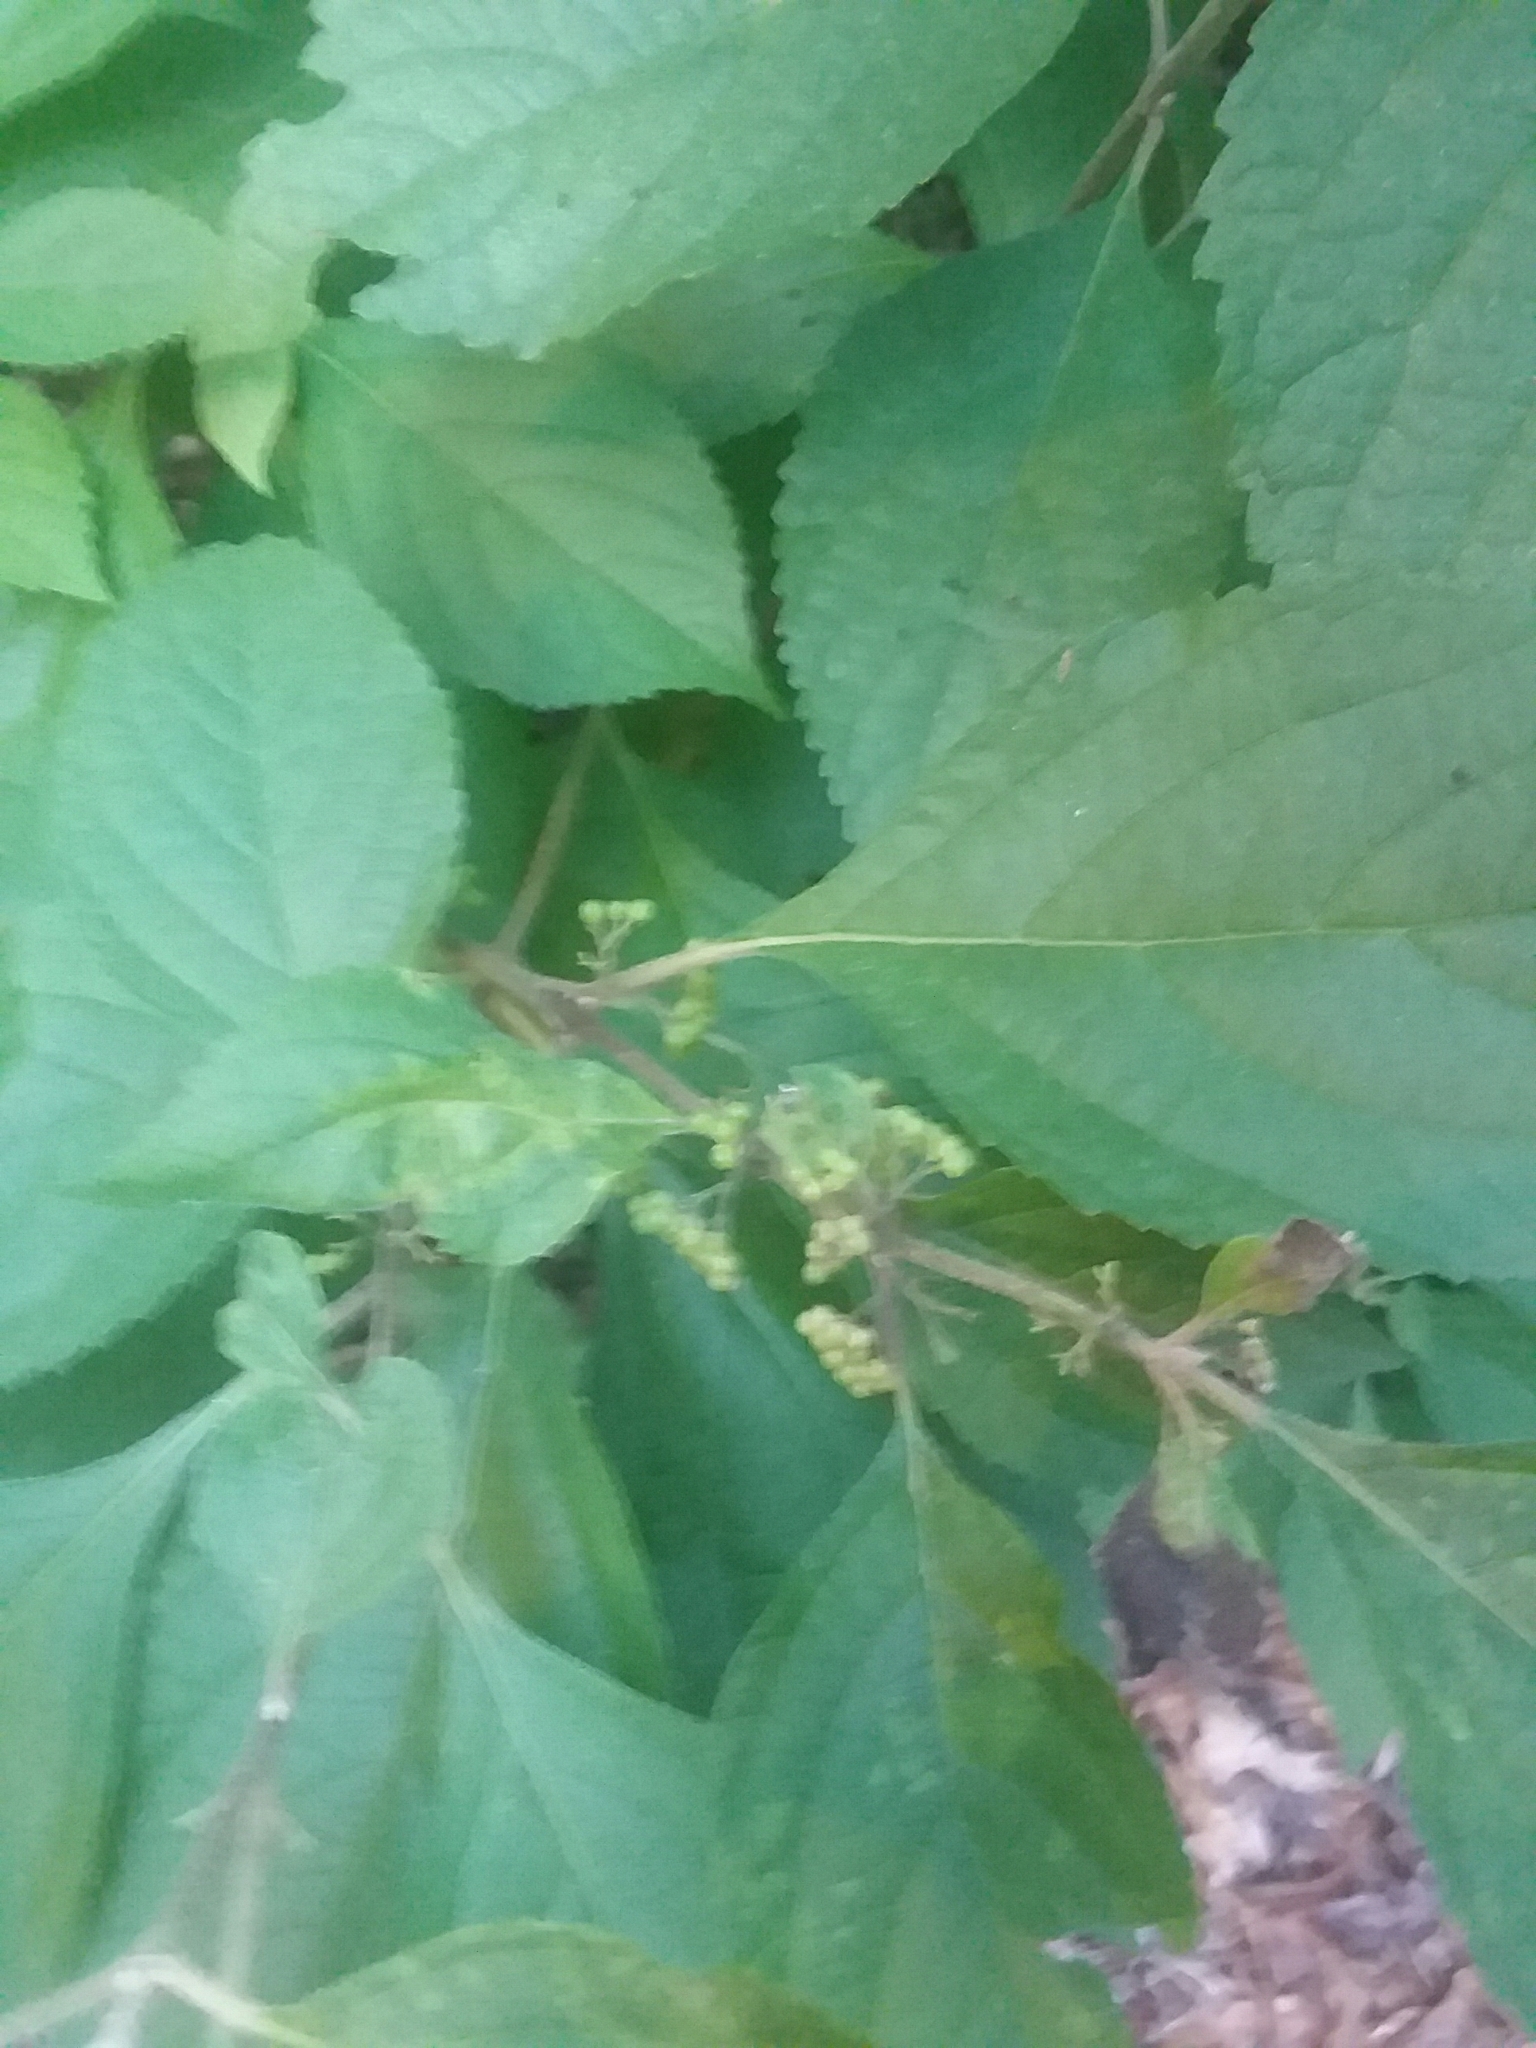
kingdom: Plantae
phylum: Tracheophyta
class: Magnoliopsida
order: Lamiales
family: Lamiaceae
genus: Callicarpa
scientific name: Callicarpa americana
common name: American beautyberry
